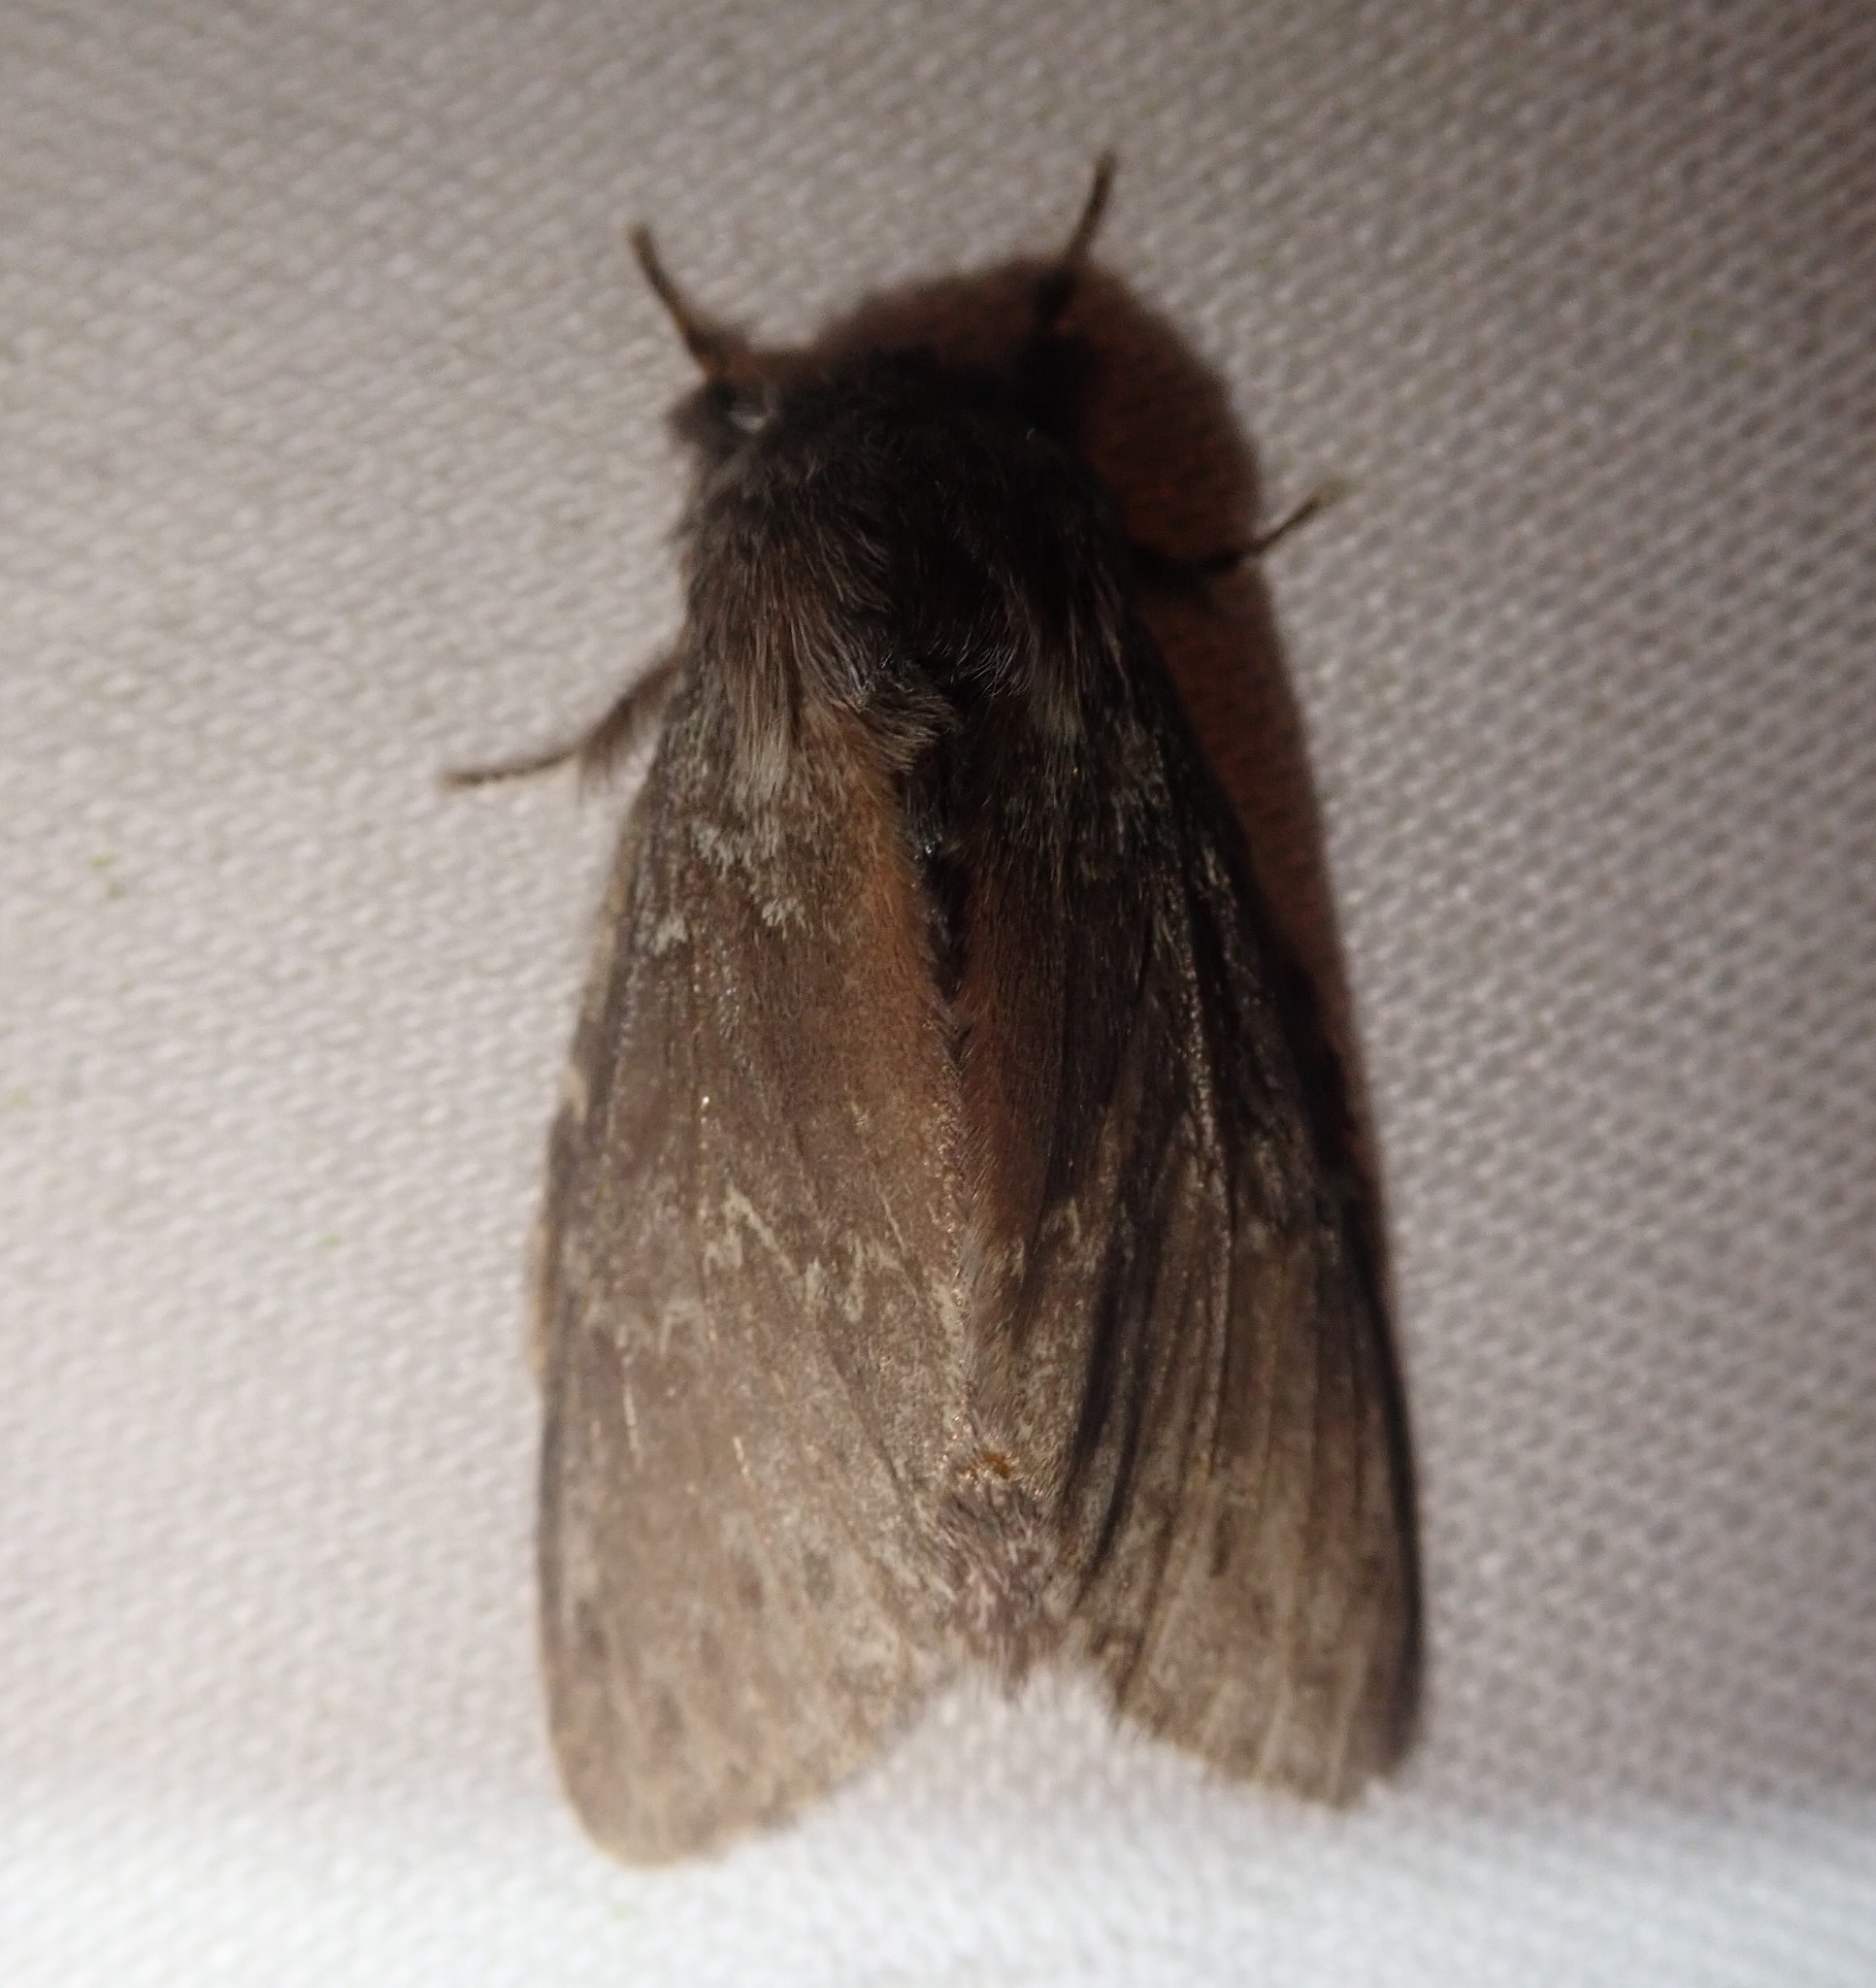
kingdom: Animalia
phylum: Arthropoda
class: Insecta
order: Lepidoptera
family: Notodontidae
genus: Stauropus
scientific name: Stauropus fagi
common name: Lobster moth
